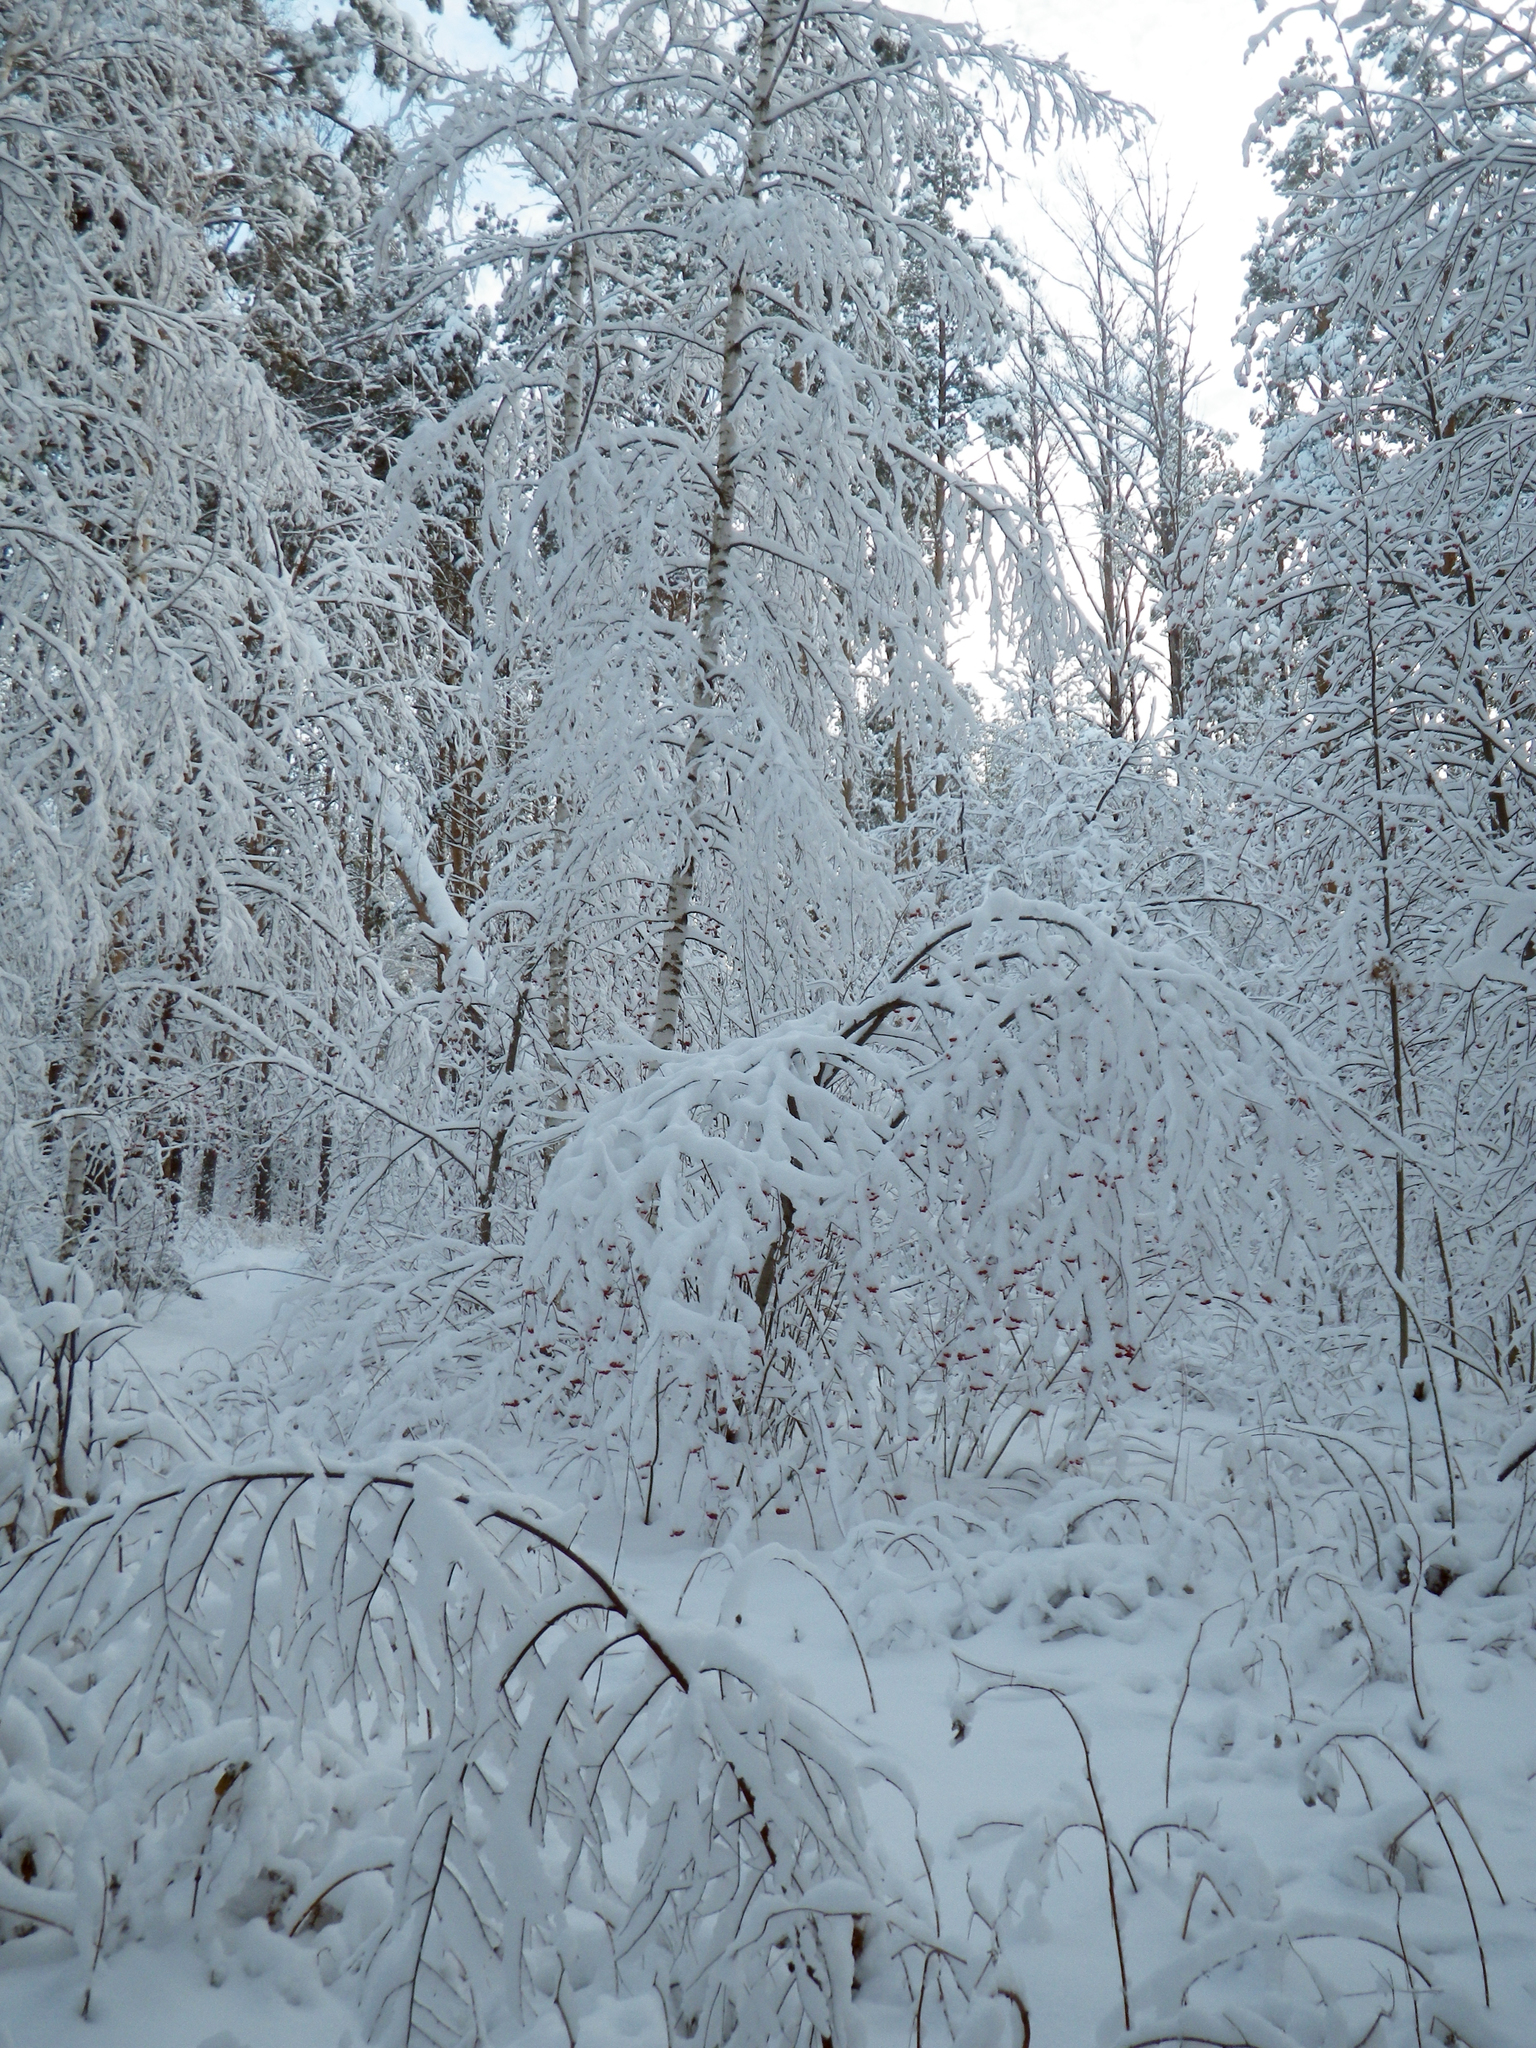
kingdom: Plantae
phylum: Tracheophyta
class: Magnoliopsida
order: Rosales
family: Rosaceae
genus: Prunus
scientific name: Prunus padus
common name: Bird cherry
